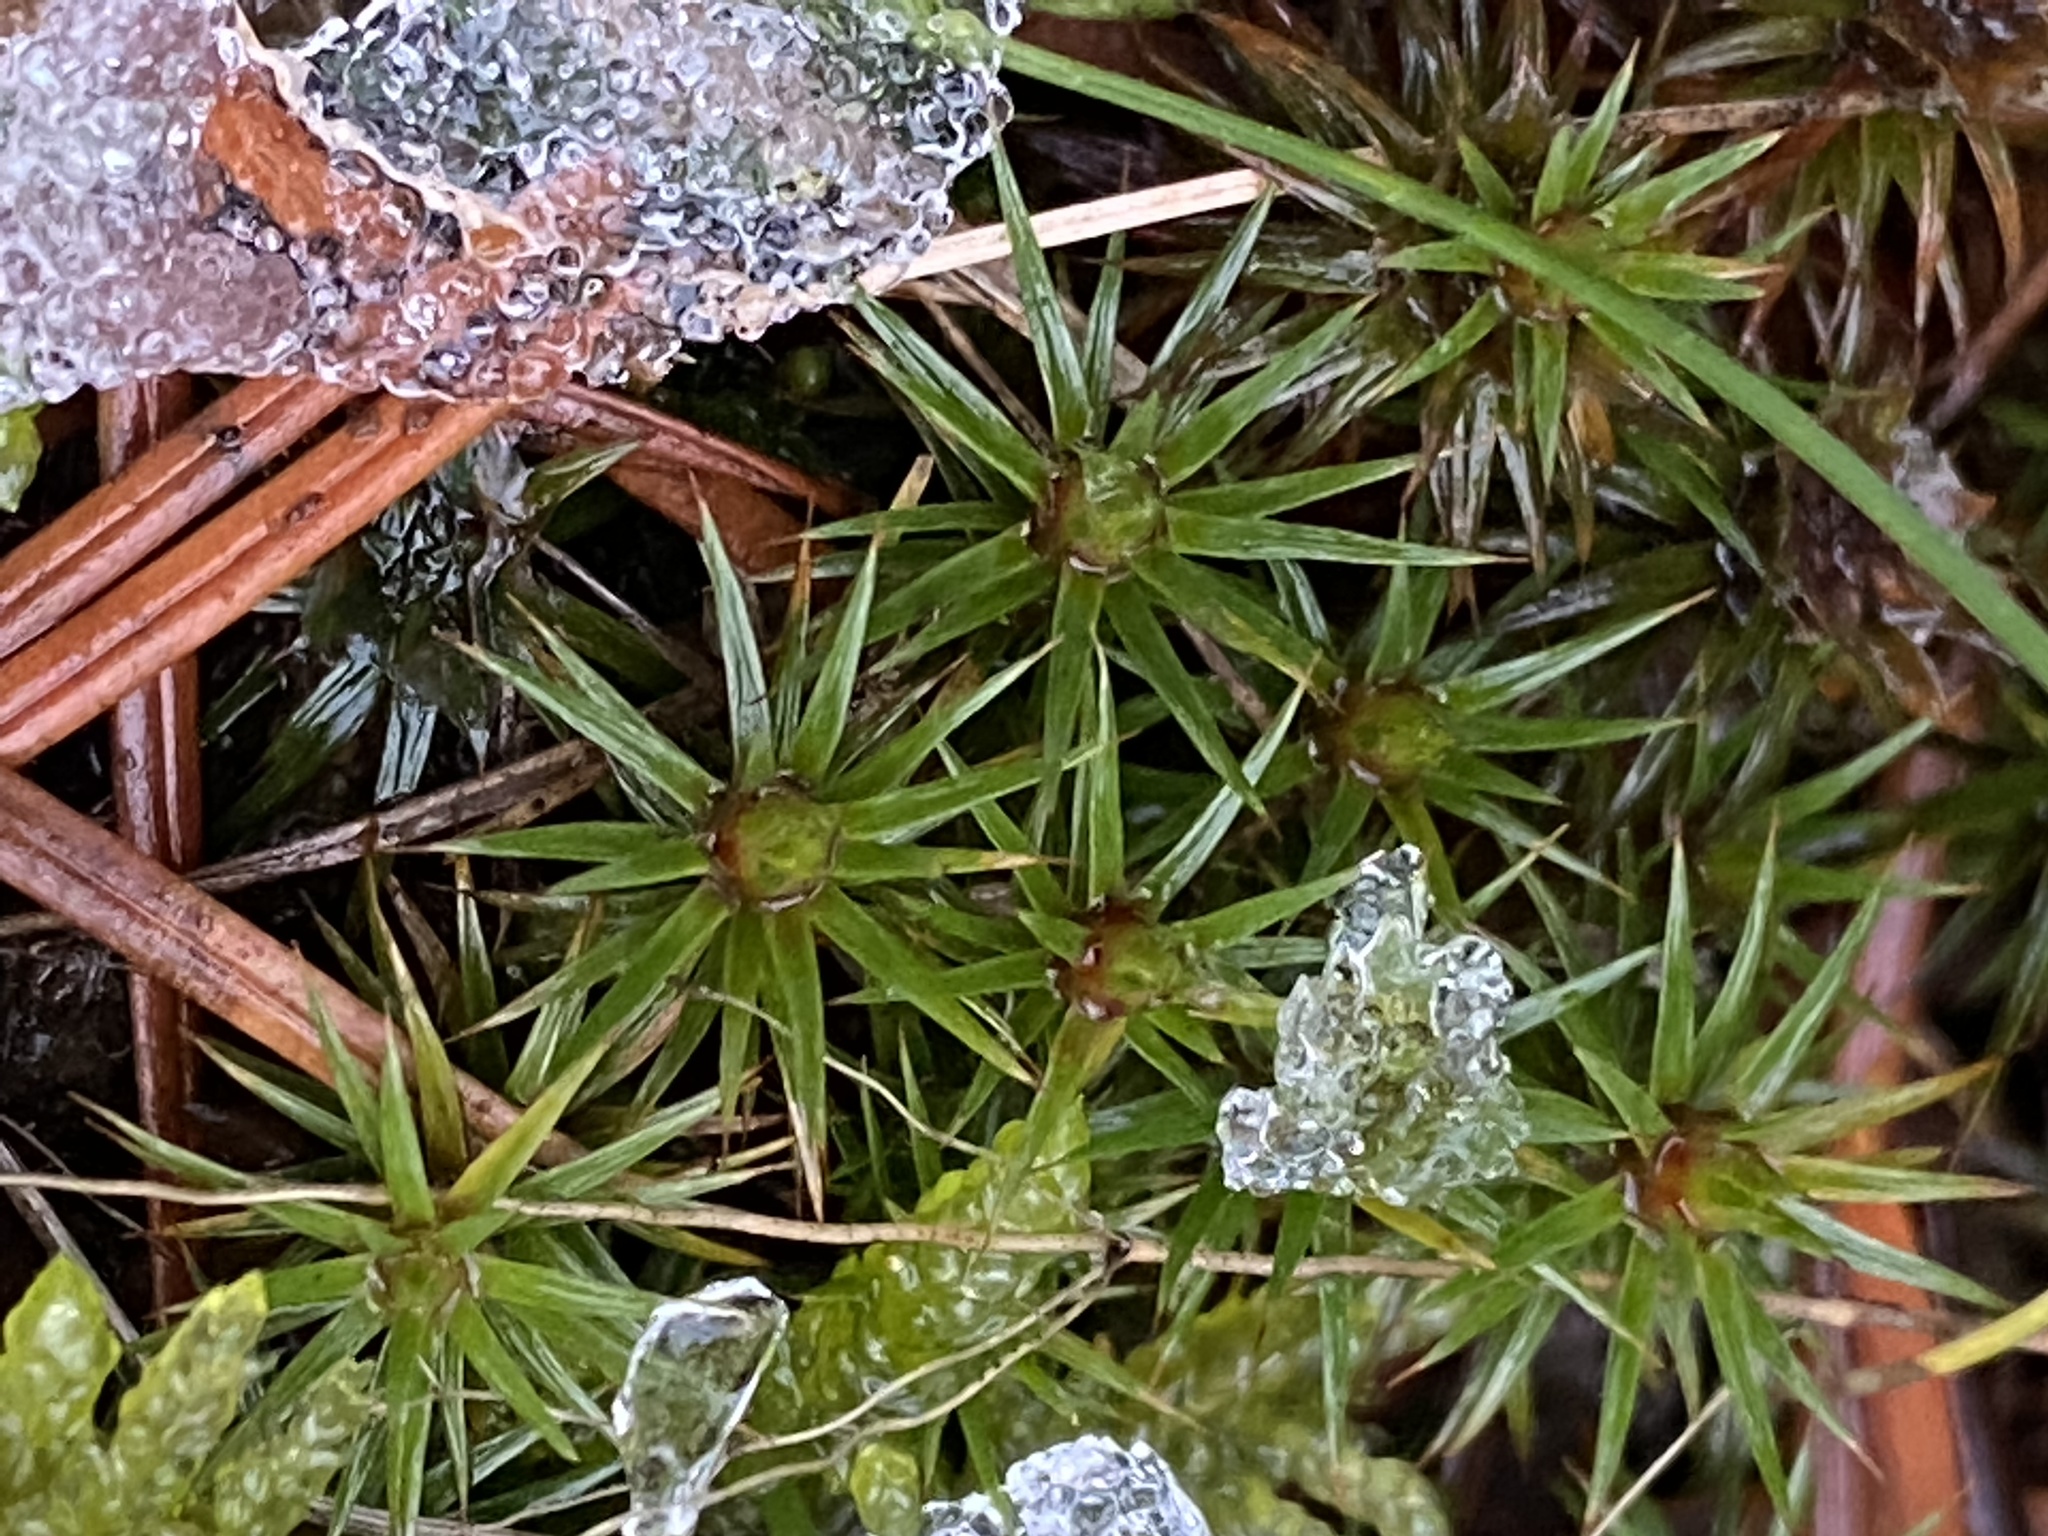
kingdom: Plantae
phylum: Bryophyta
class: Polytrichopsida
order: Polytrichales
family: Polytrichaceae
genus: Polytrichum
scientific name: Polytrichum juniperinum
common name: Juniper haircap moss
